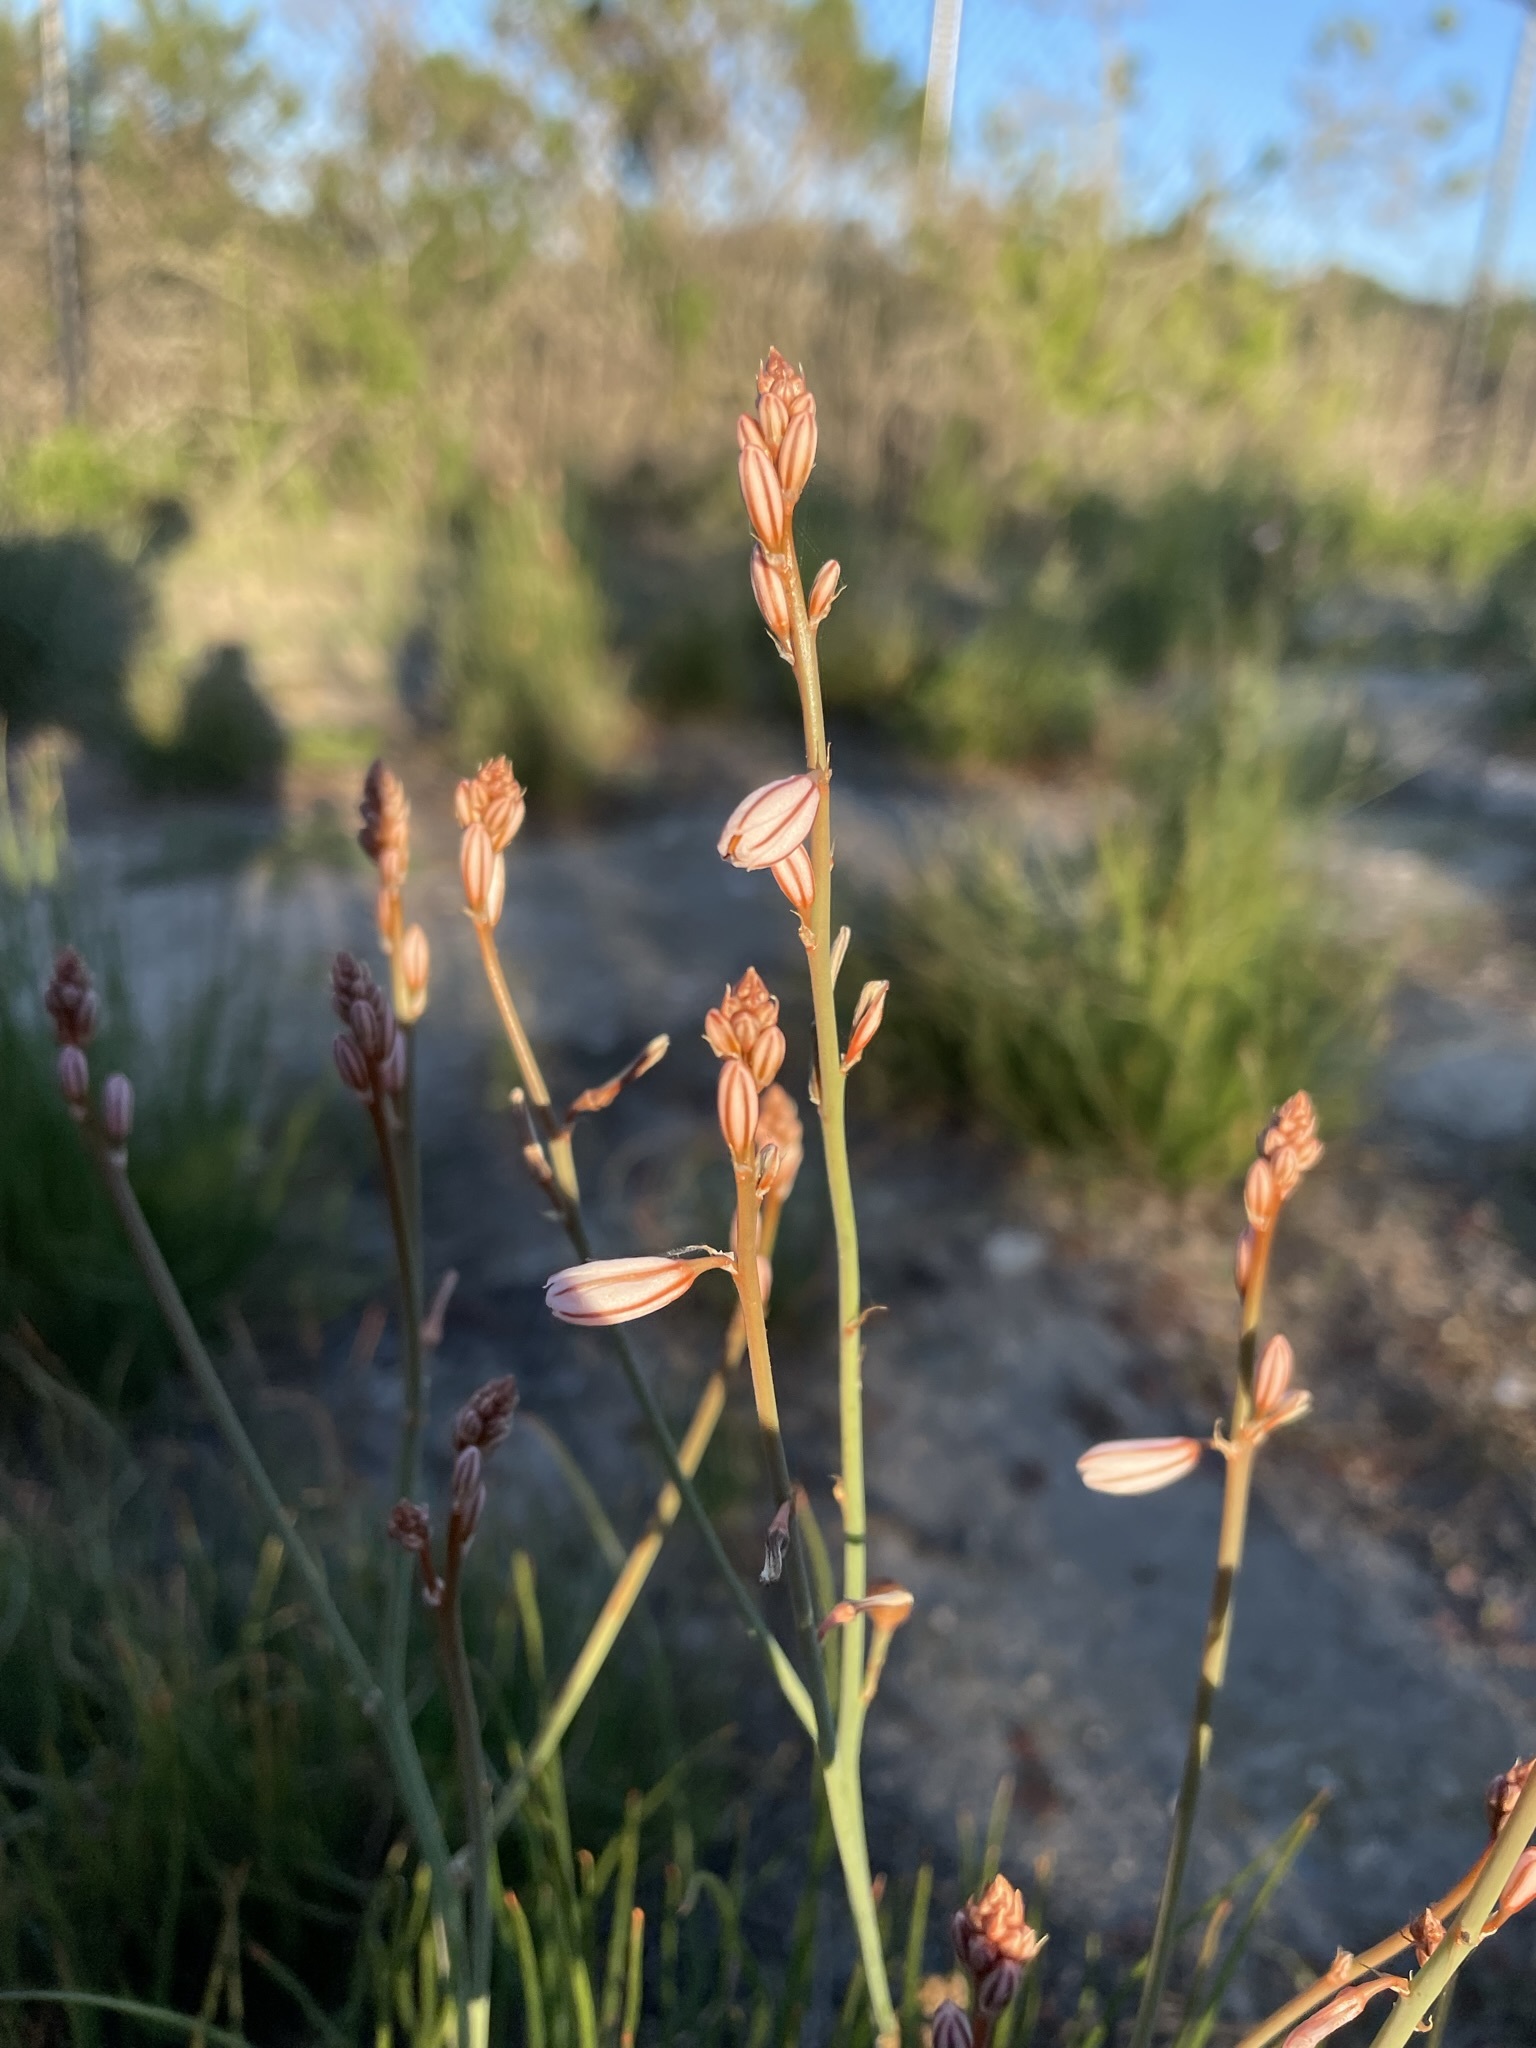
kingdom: Plantae
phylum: Tracheophyta
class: Liliopsida
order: Asparagales
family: Asphodelaceae
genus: Asphodelus
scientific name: Asphodelus fistulosus
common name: Onionweed
